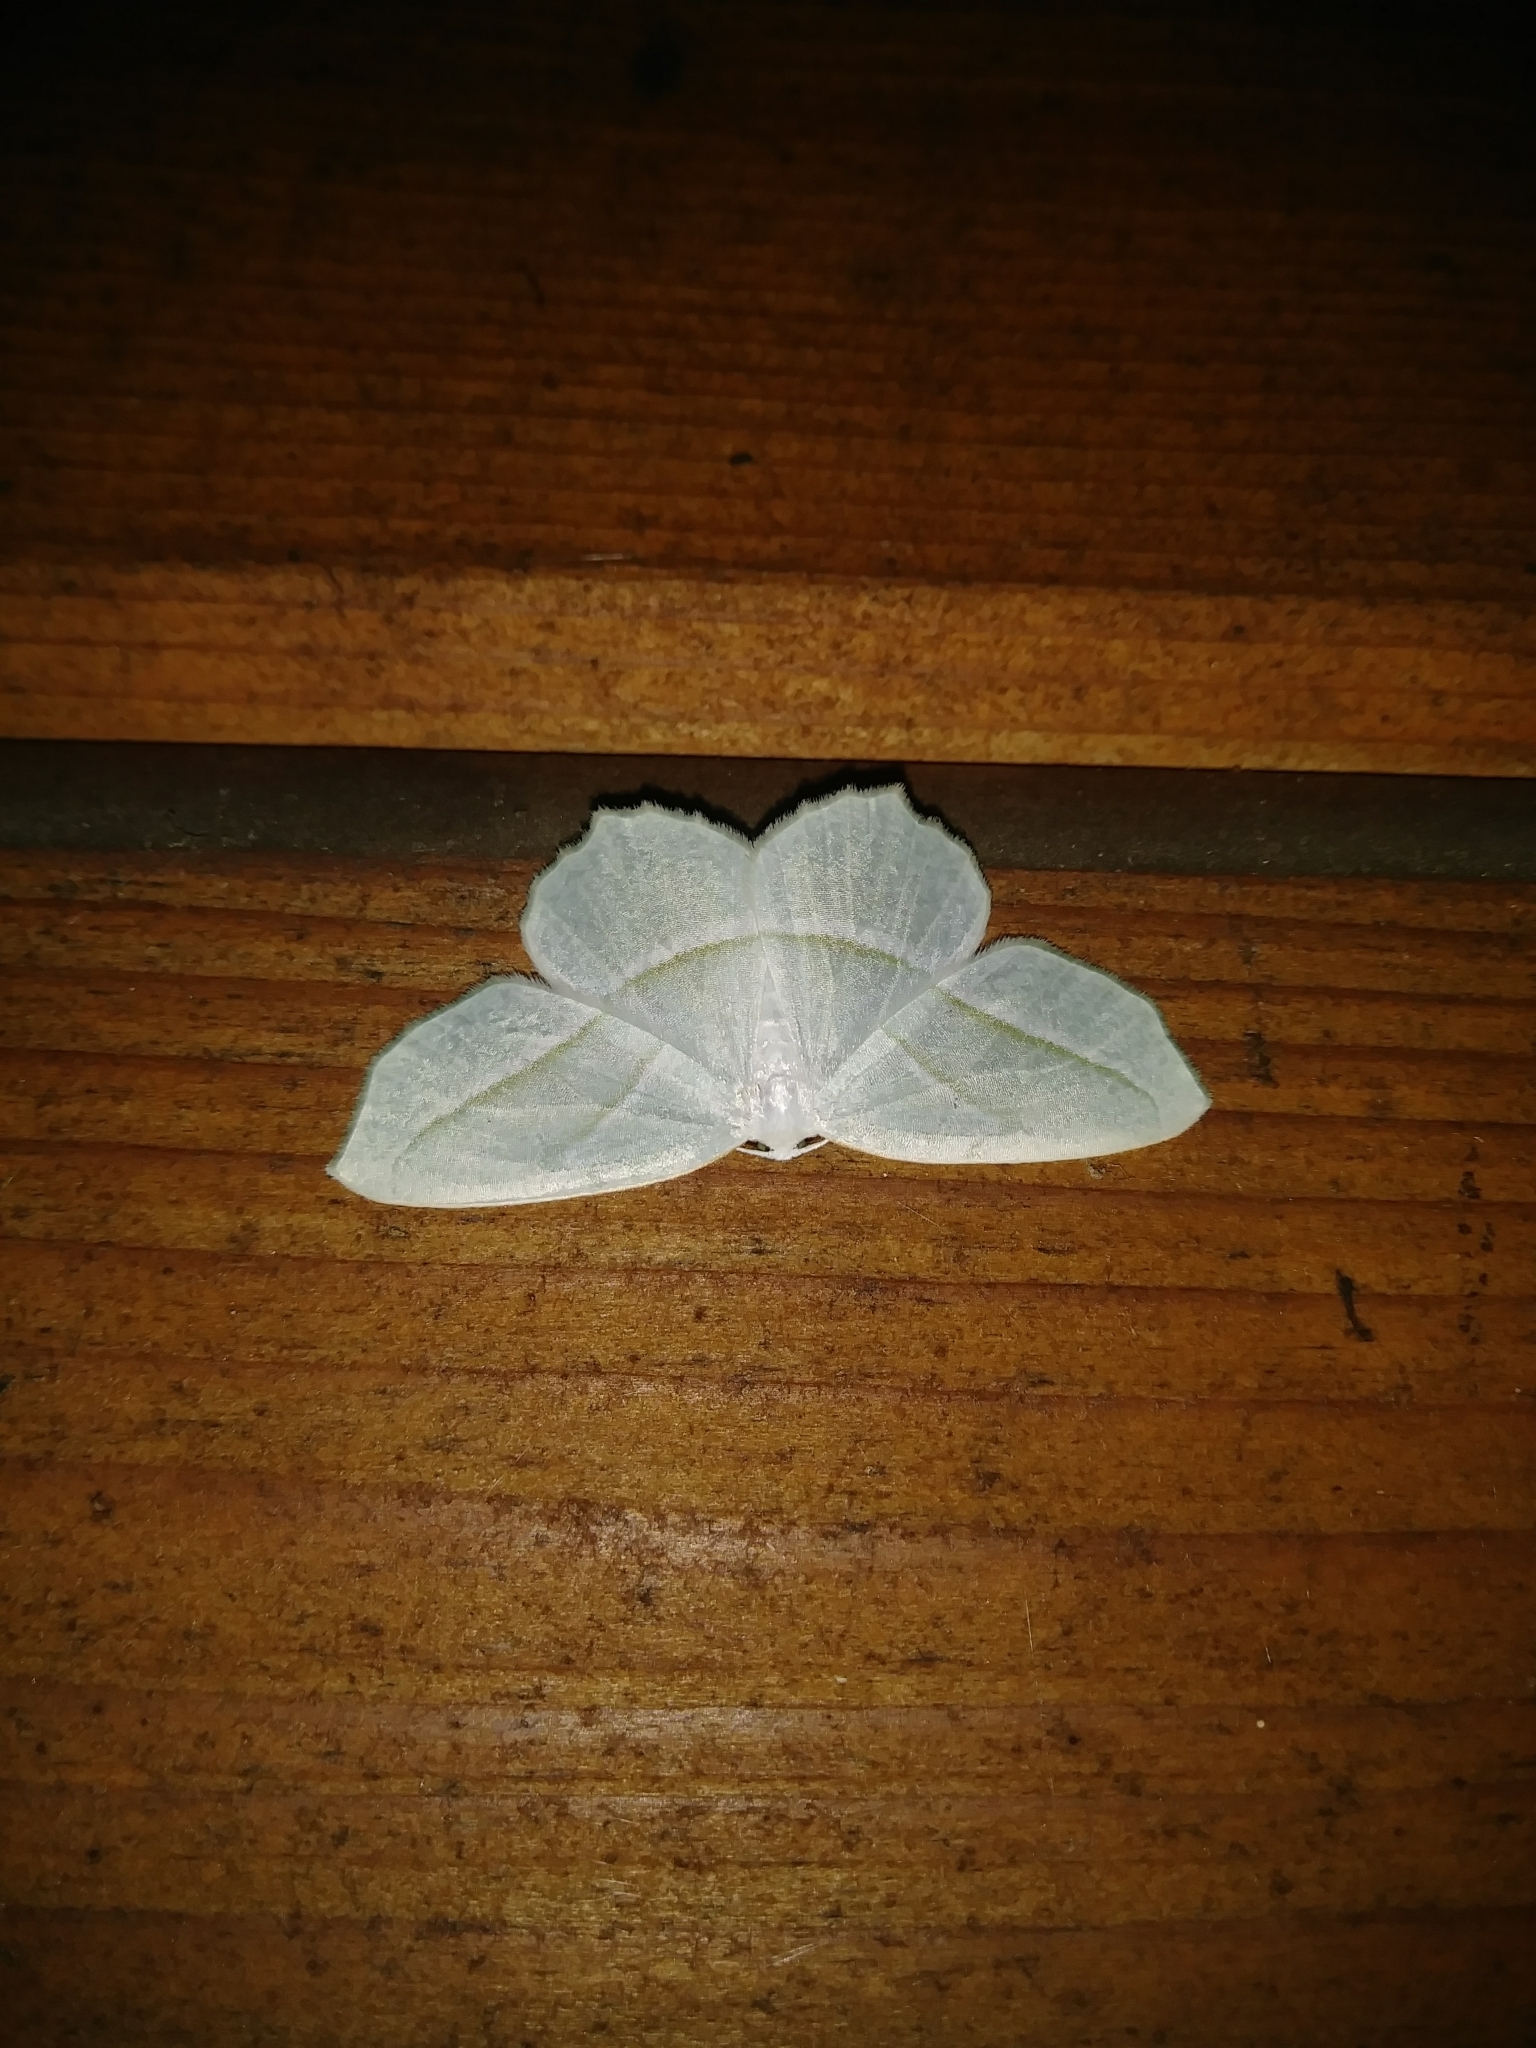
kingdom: Animalia
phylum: Arthropoda
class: Insecta
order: Lepidoptera
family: Geometridae
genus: Campaea
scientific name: Campaea perlata
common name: Fringed looper
